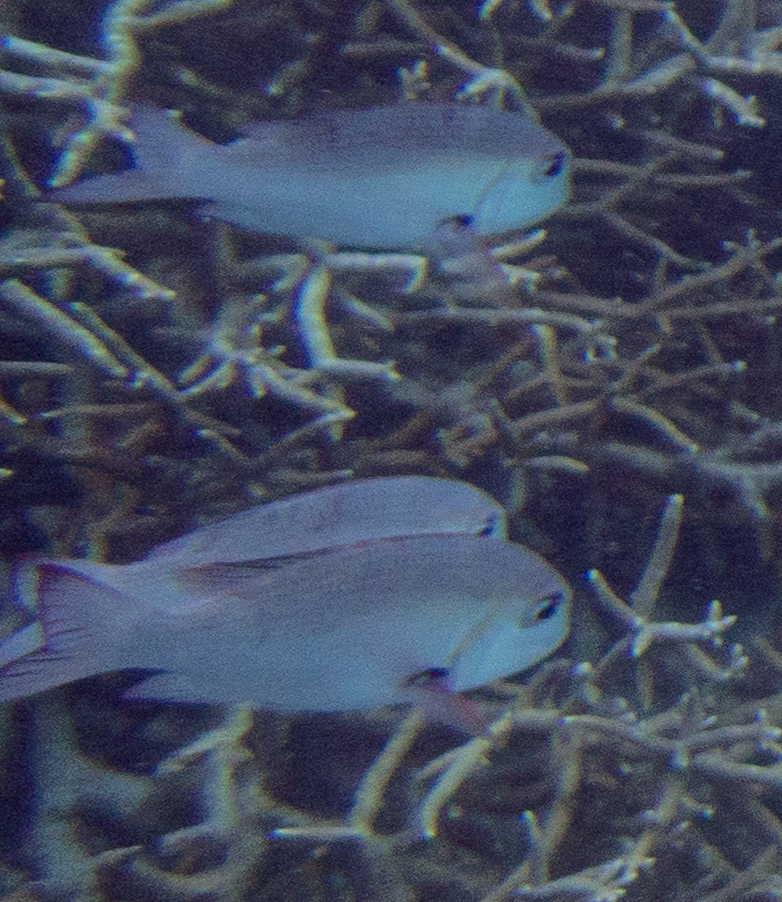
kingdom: Animalia
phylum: Chordata
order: Perciformes
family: Lethrinidae
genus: Monotaxis
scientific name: Monotaxis grandoculis
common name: Bigeye emperor
